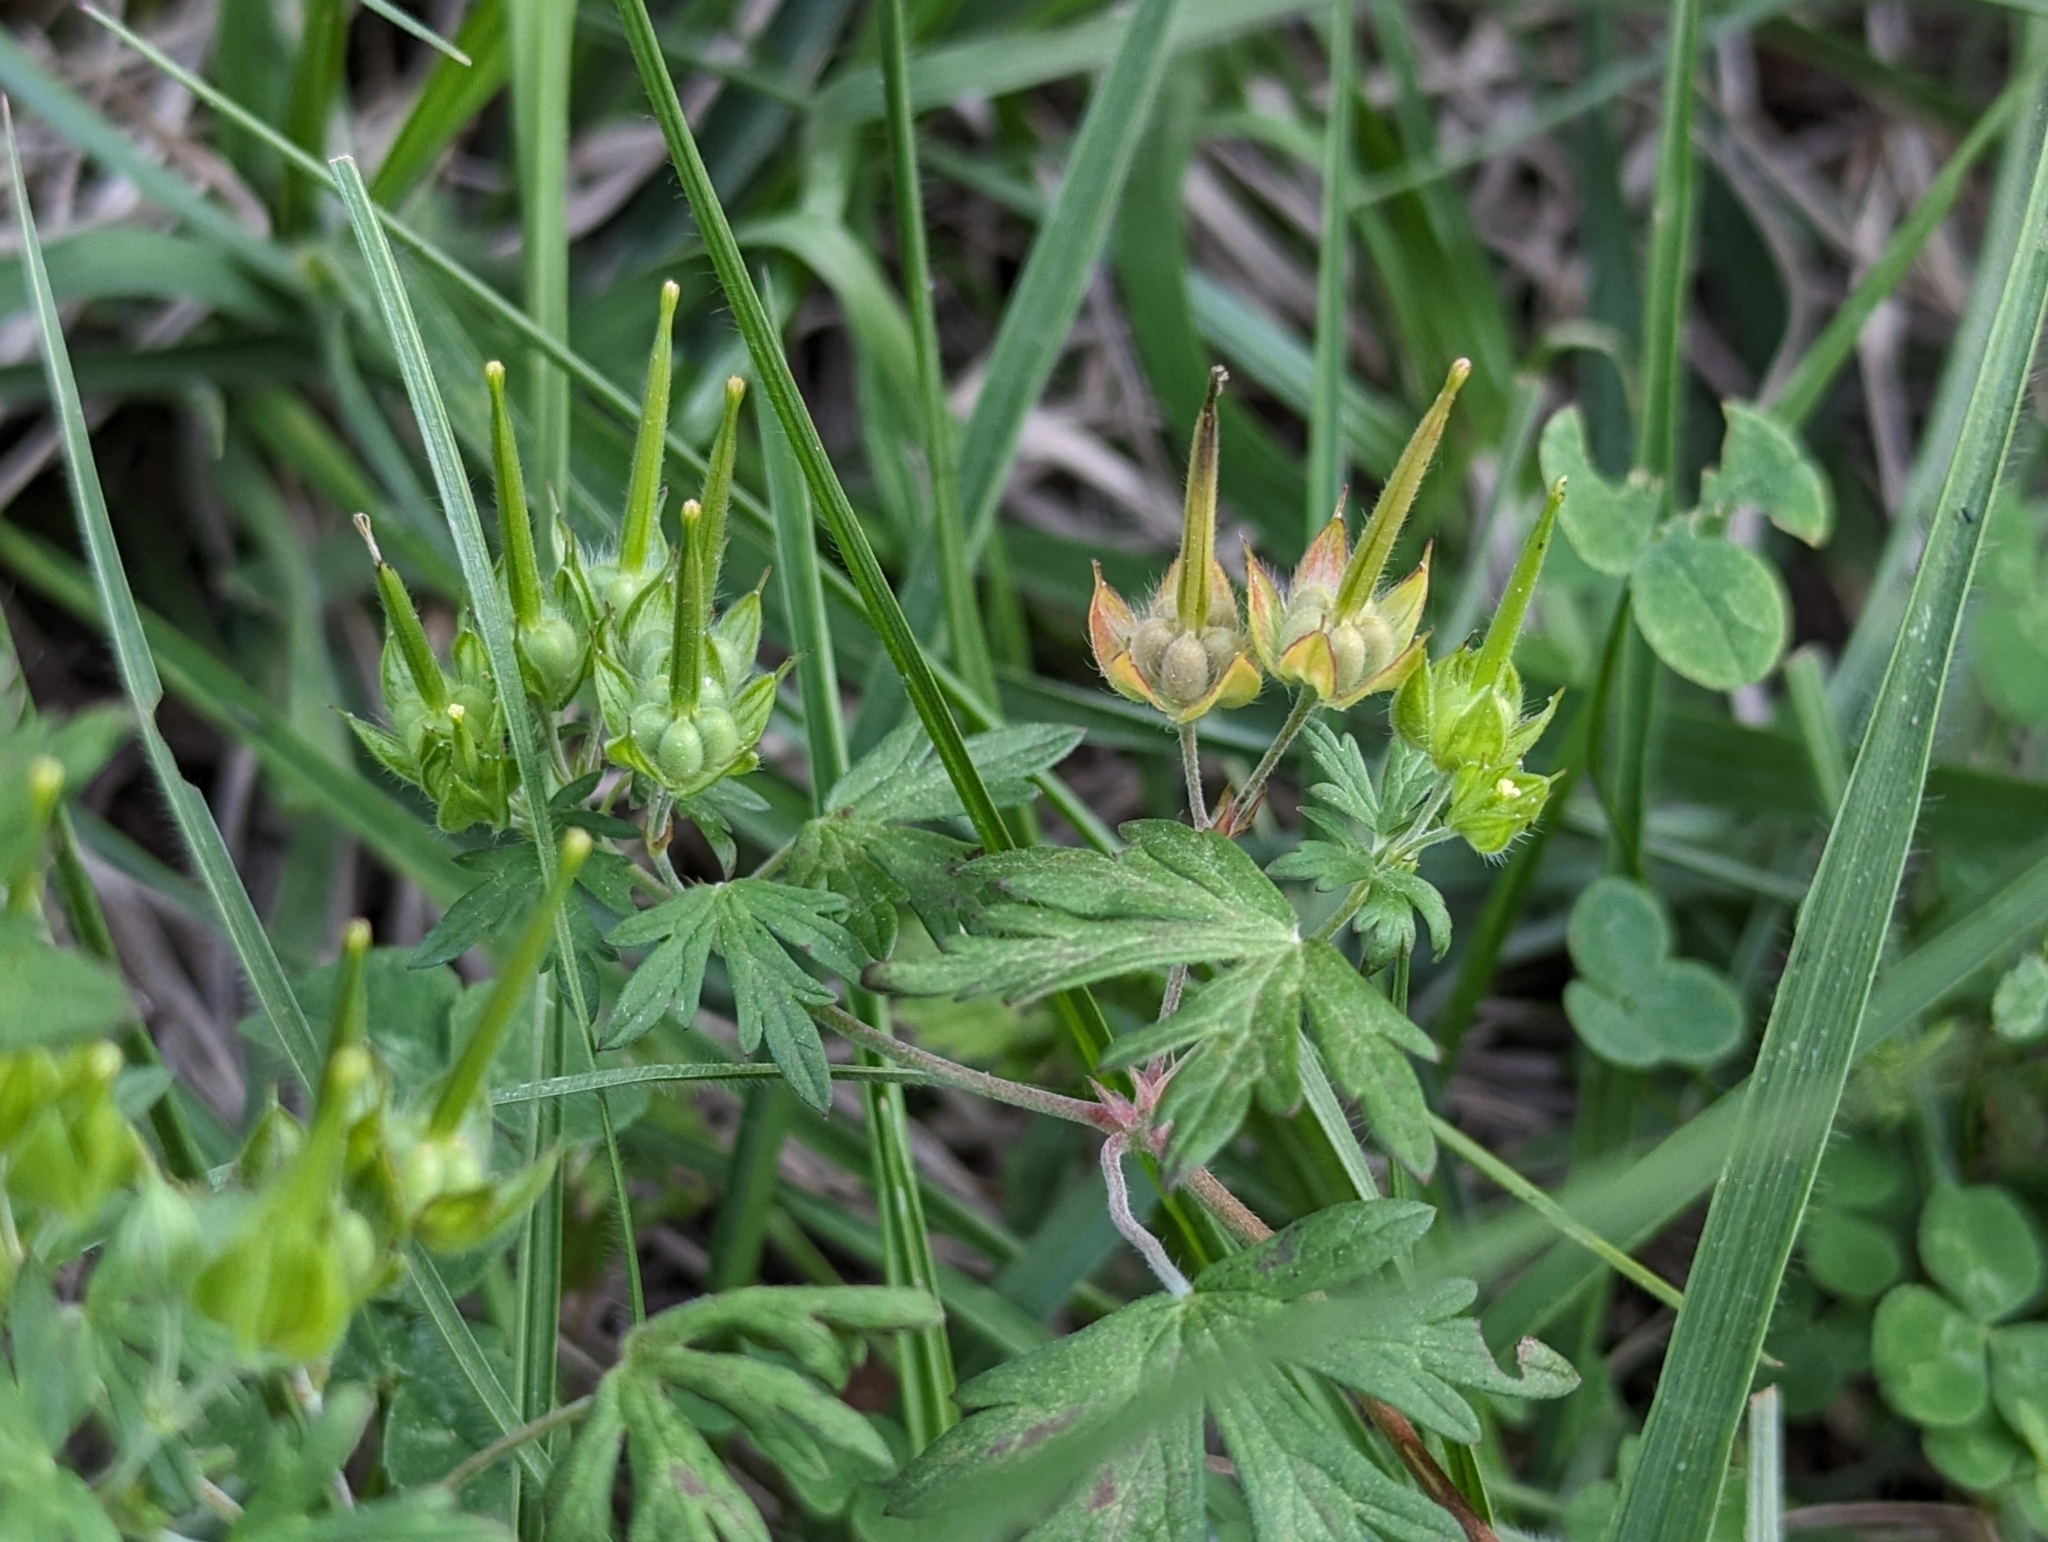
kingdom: Plantae
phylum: Tracheophyta
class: Magnoliopsida
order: Geraniales
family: Geraniaceae
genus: Geranium
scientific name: Geranium carolinianum
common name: Carolina crane's-bill
